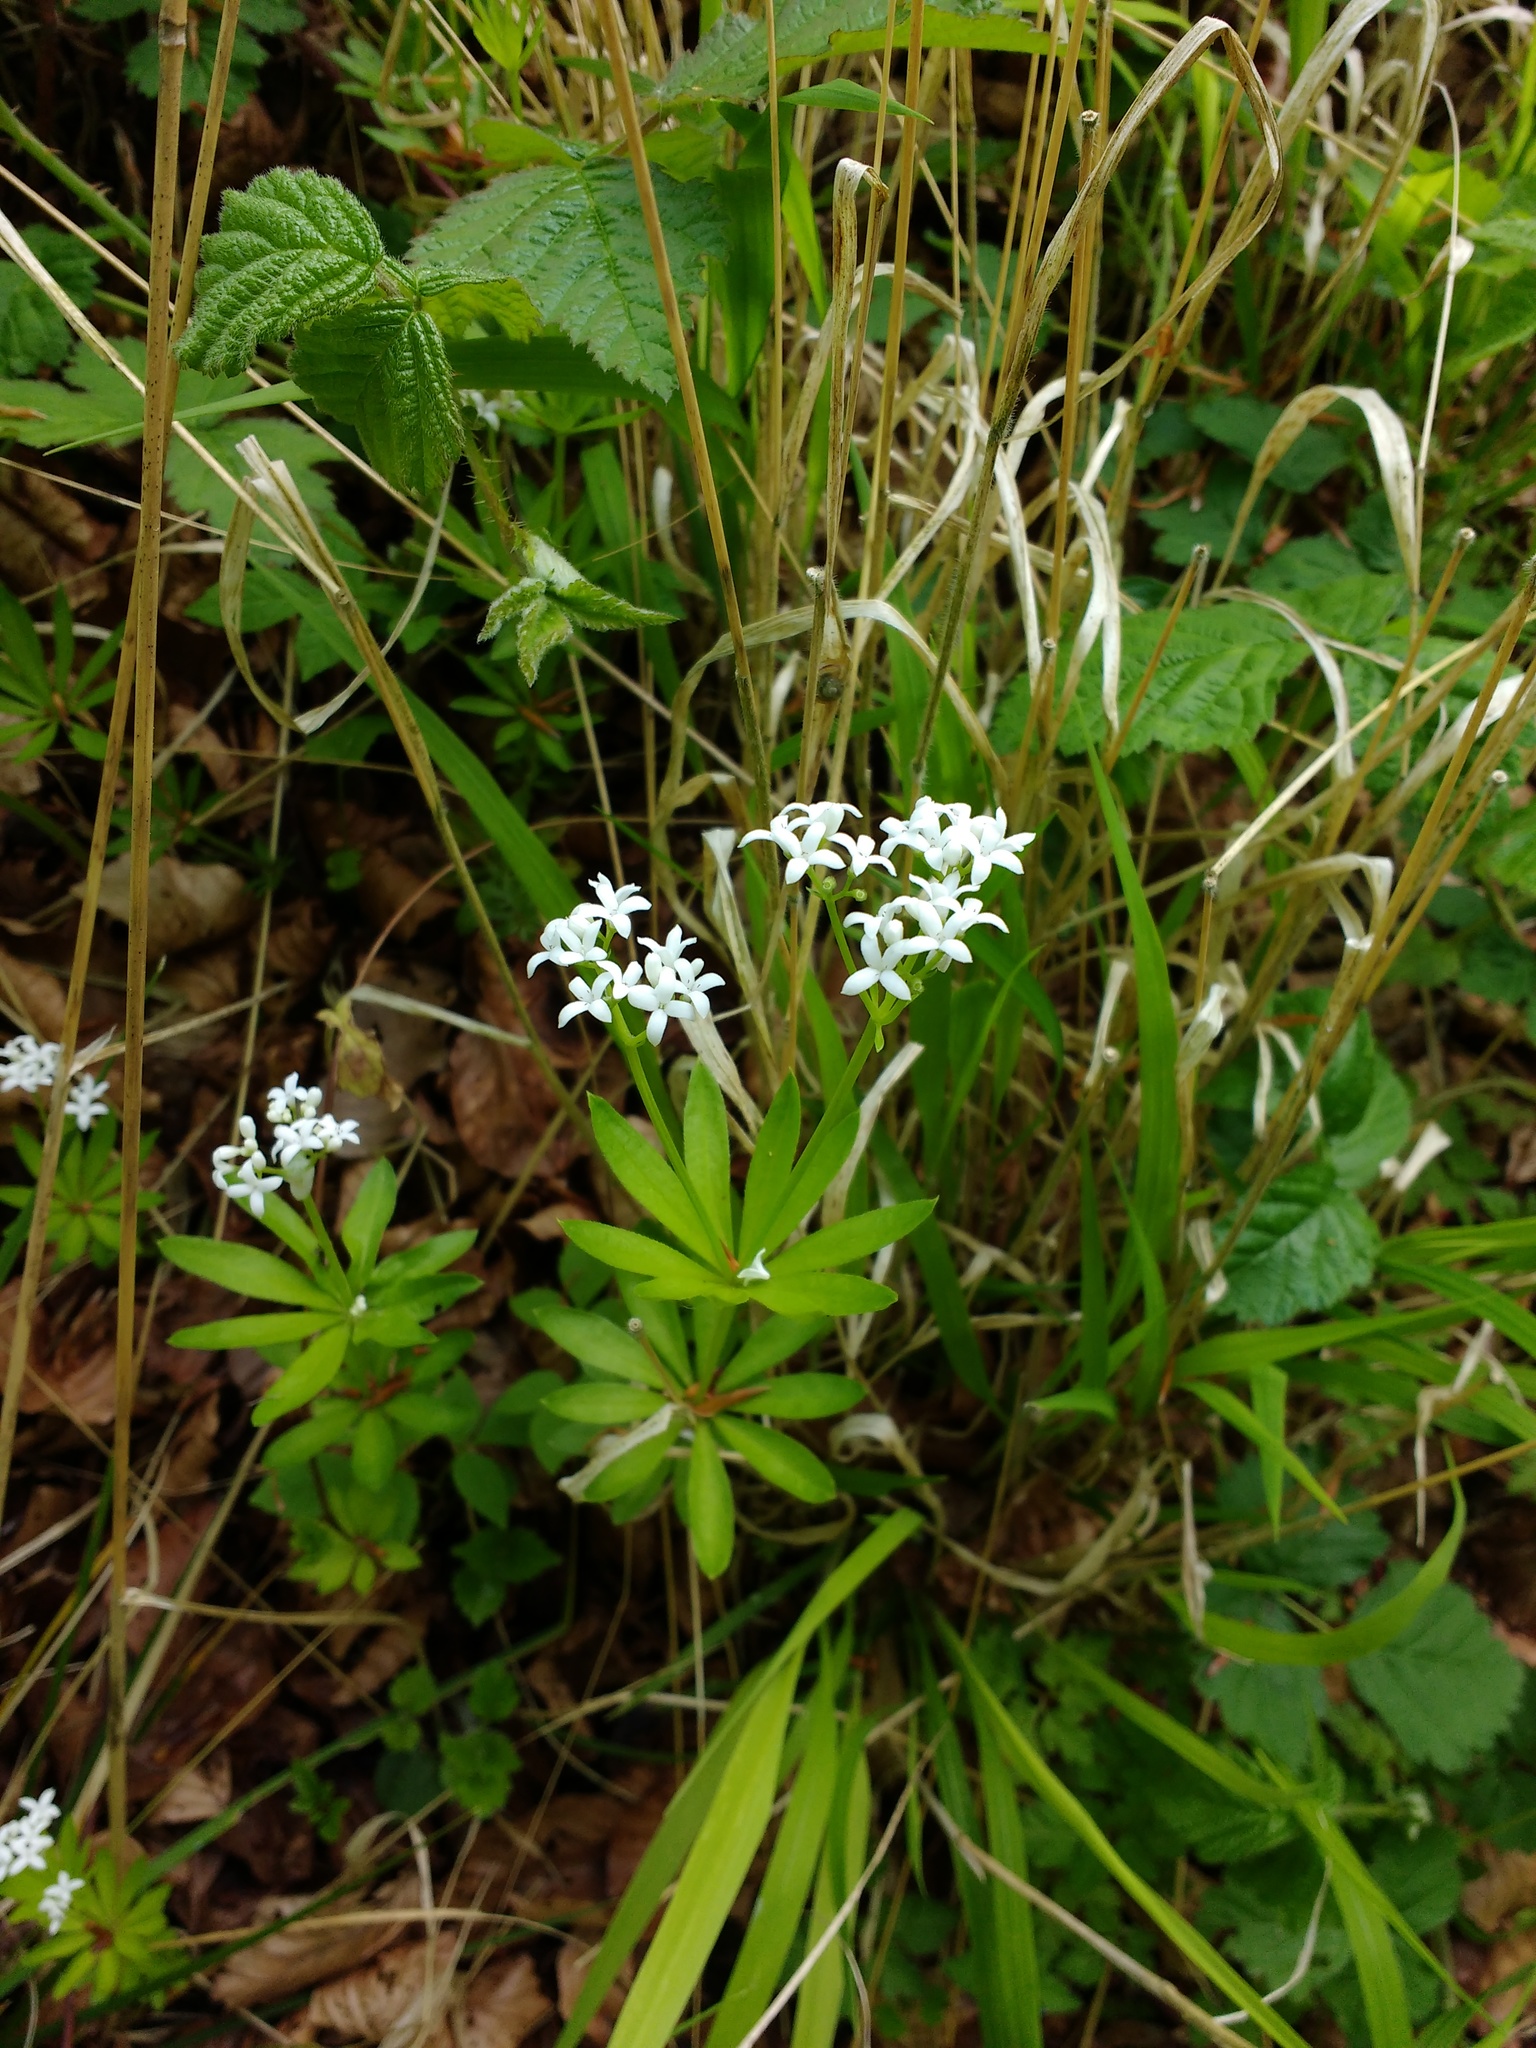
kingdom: Plantae
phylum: Tracheophyta
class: Magnoliopsida
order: Gentianales
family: Rubiaceae
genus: Galium
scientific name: Galium odoratum
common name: Sweet woodruff
